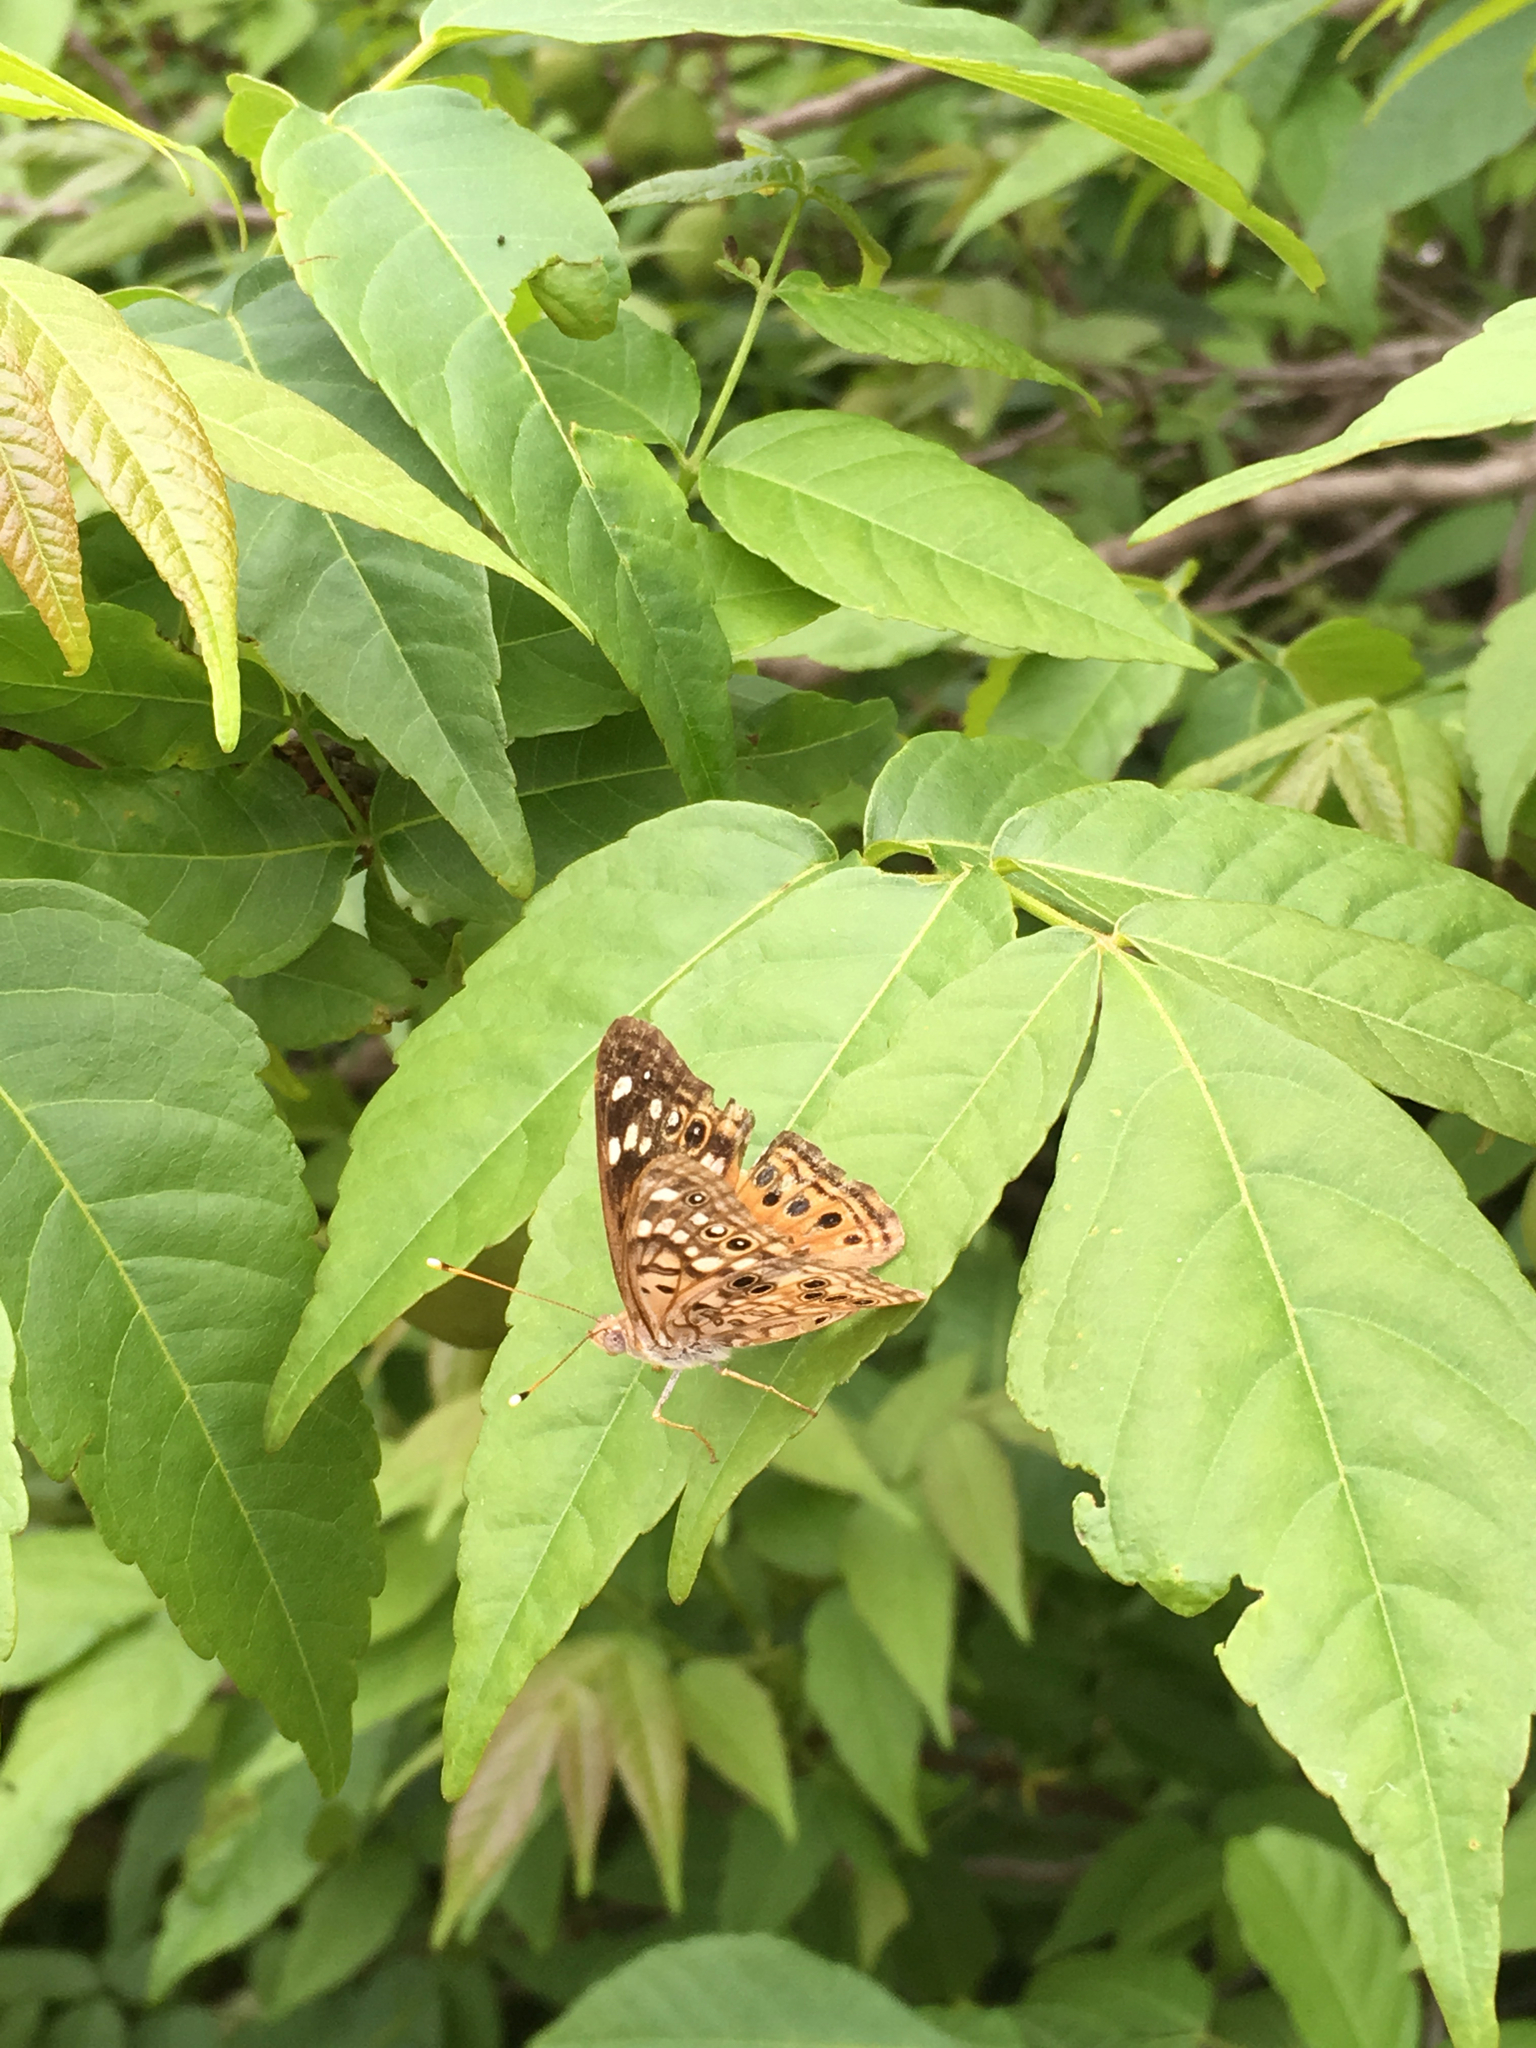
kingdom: Animalia
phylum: Arthropoda
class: Insecta
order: Lepidoptera
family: Nymphalidae
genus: Asterocampa
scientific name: Asterocampa celtis
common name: Hackberry emperor
